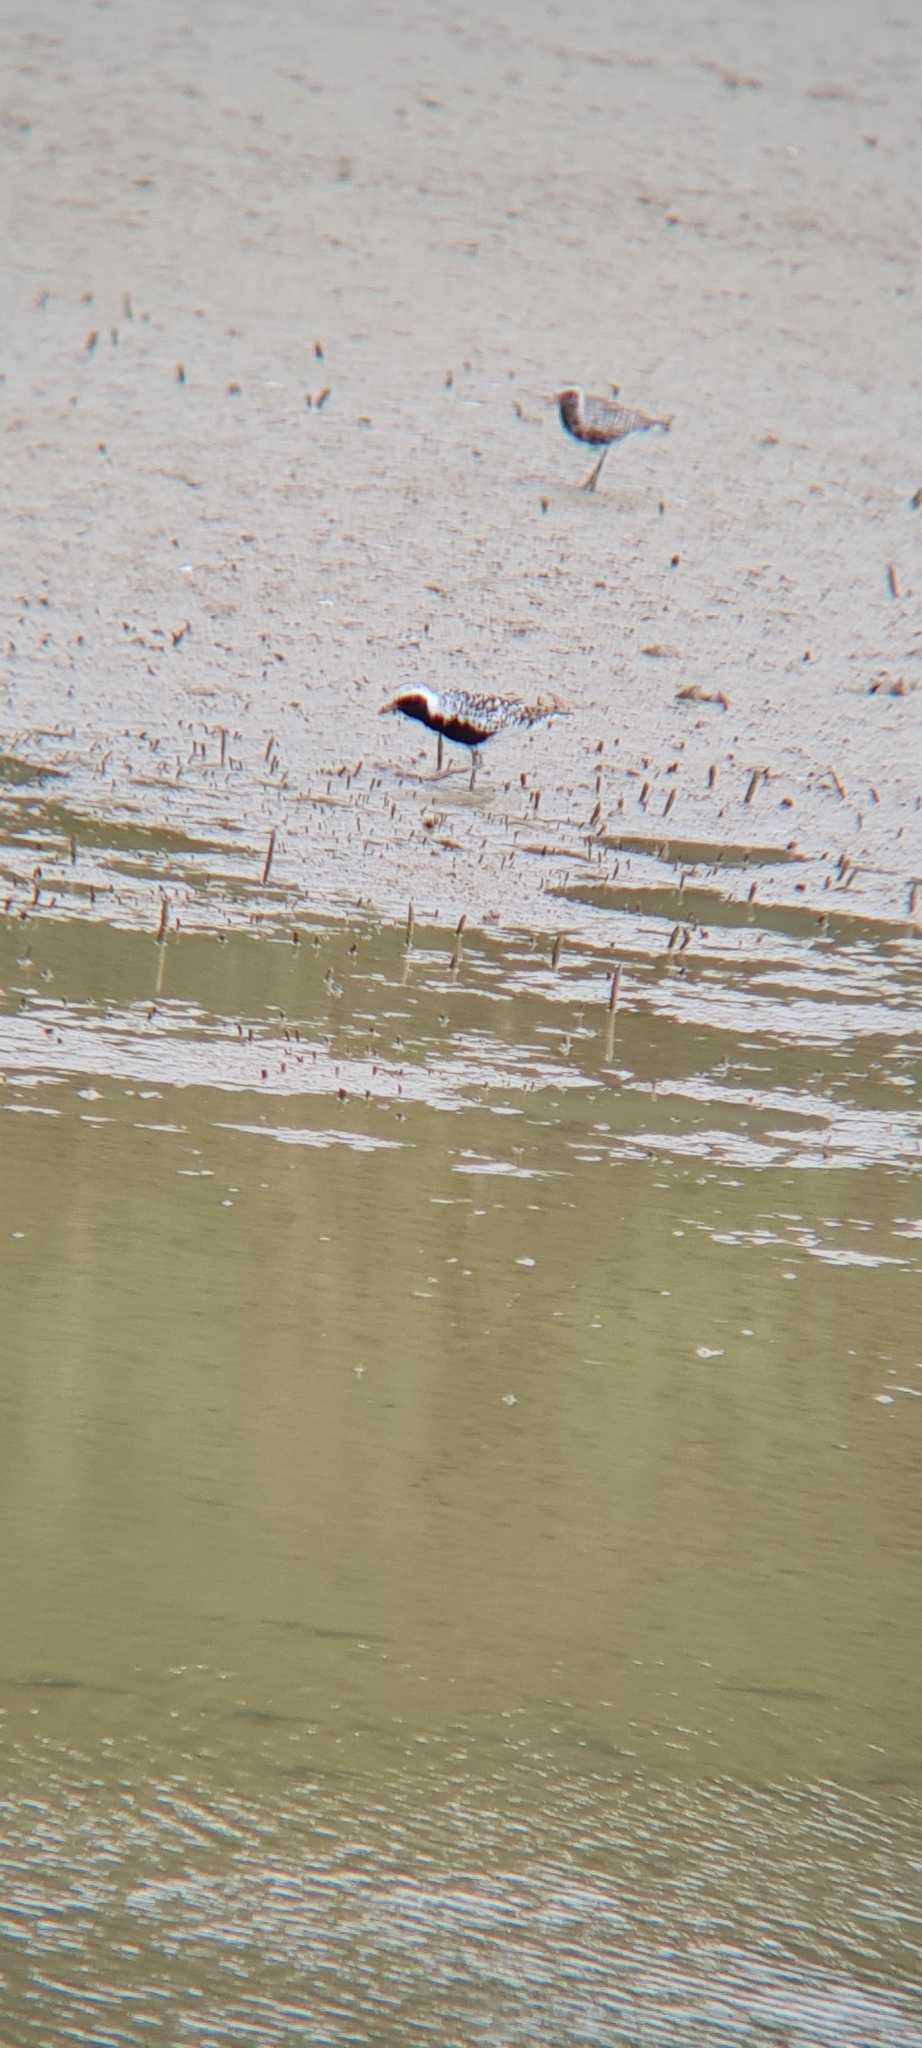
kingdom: Animalia
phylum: Chordata
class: Aves
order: Charadriiformes
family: Charadriidae
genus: Pluvialis
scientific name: Pluvialis squatarola
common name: Grey plover
